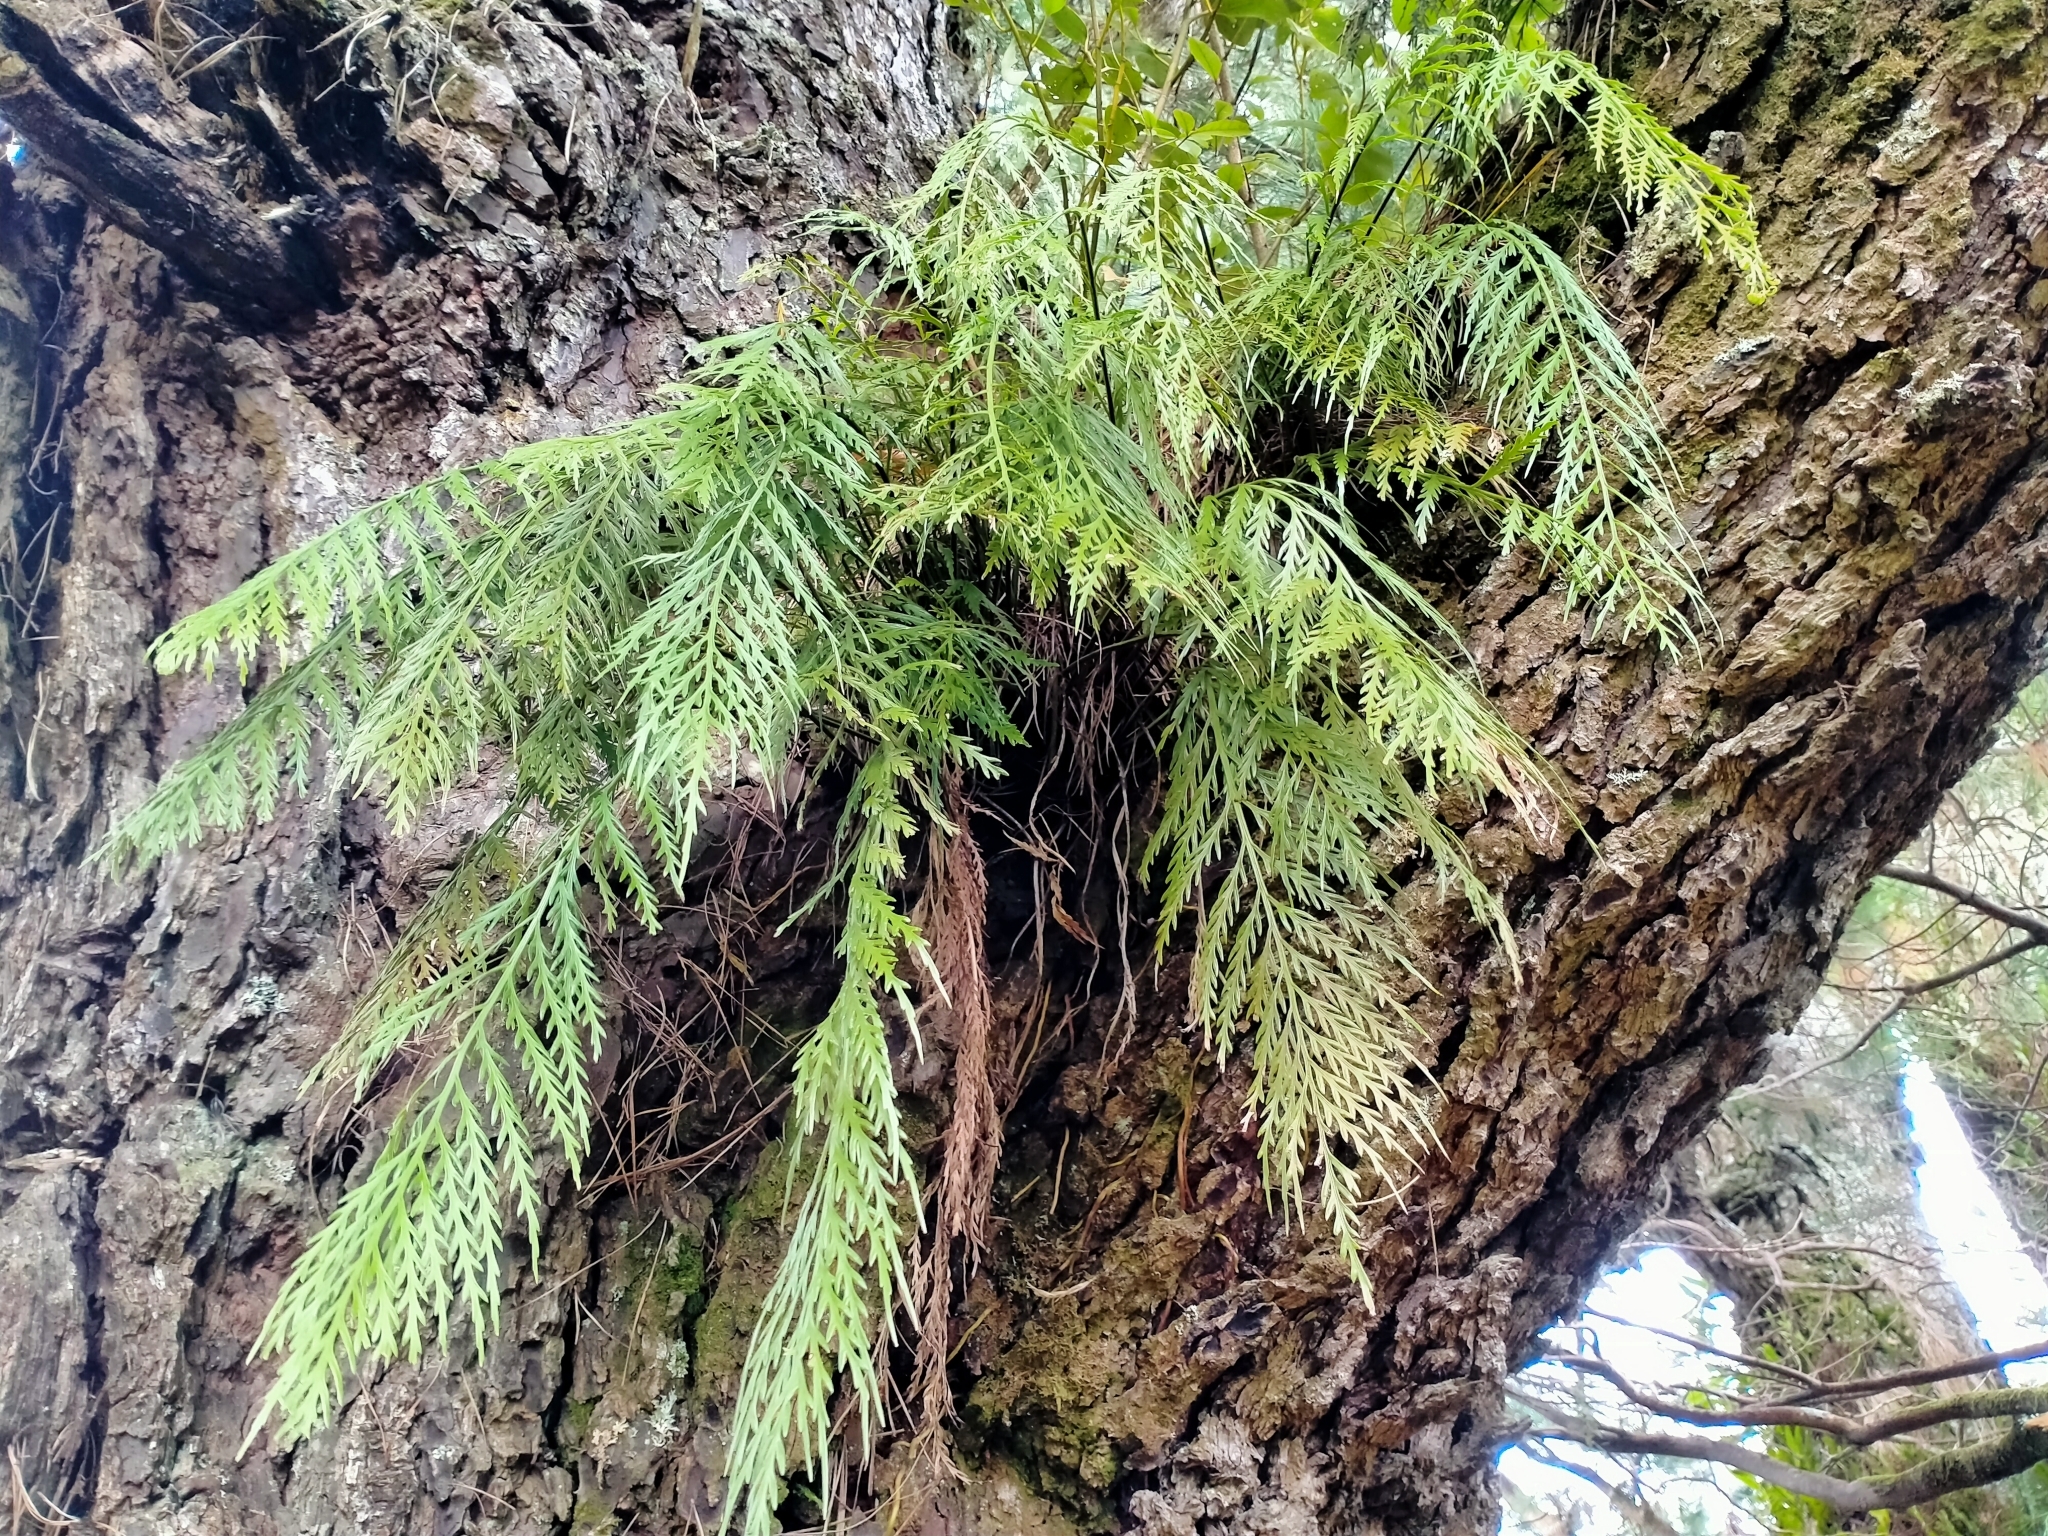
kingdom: Plantae
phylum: Tracheophyta
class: Polypodiopsida
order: Polypodiales
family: Aspleniaceae
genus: Asplenium
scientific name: Asplenium flaccidum
